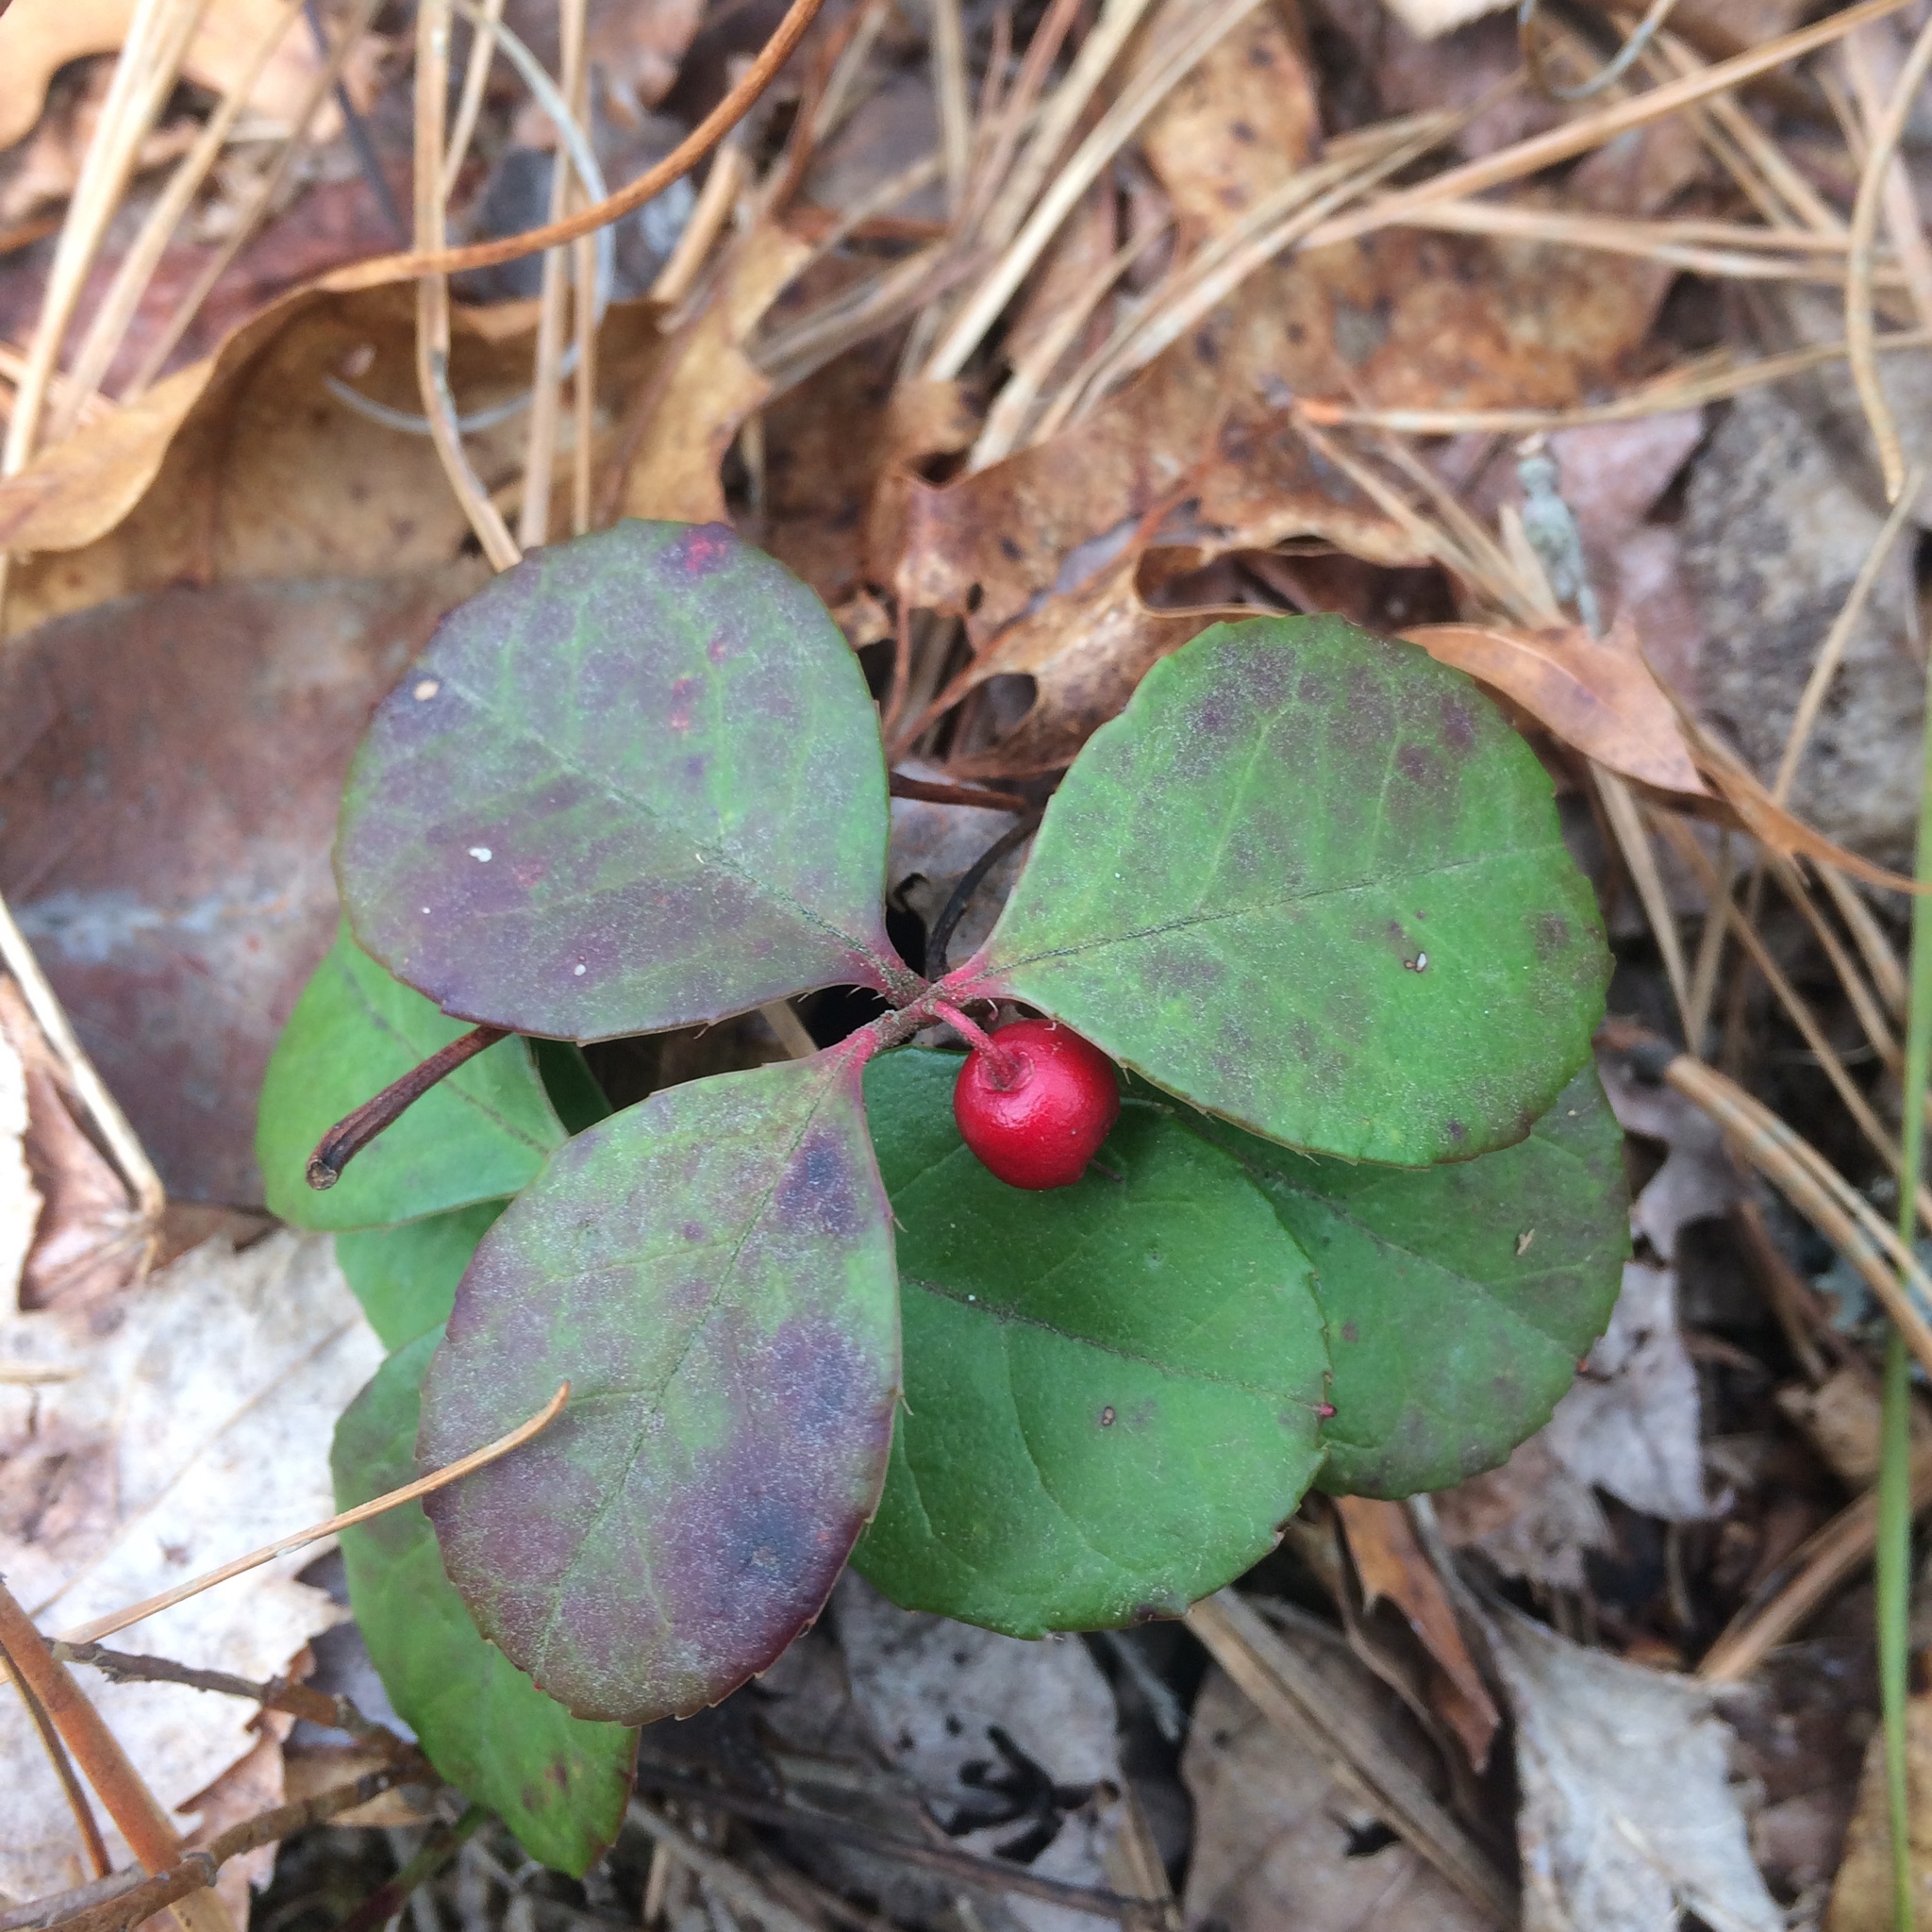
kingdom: Plantae
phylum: Tracheophyta
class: Magnoliopsida
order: Ericales
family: Ericaceae
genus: Gaultheria
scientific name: Gaultheria procumbens
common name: Checkerberry
